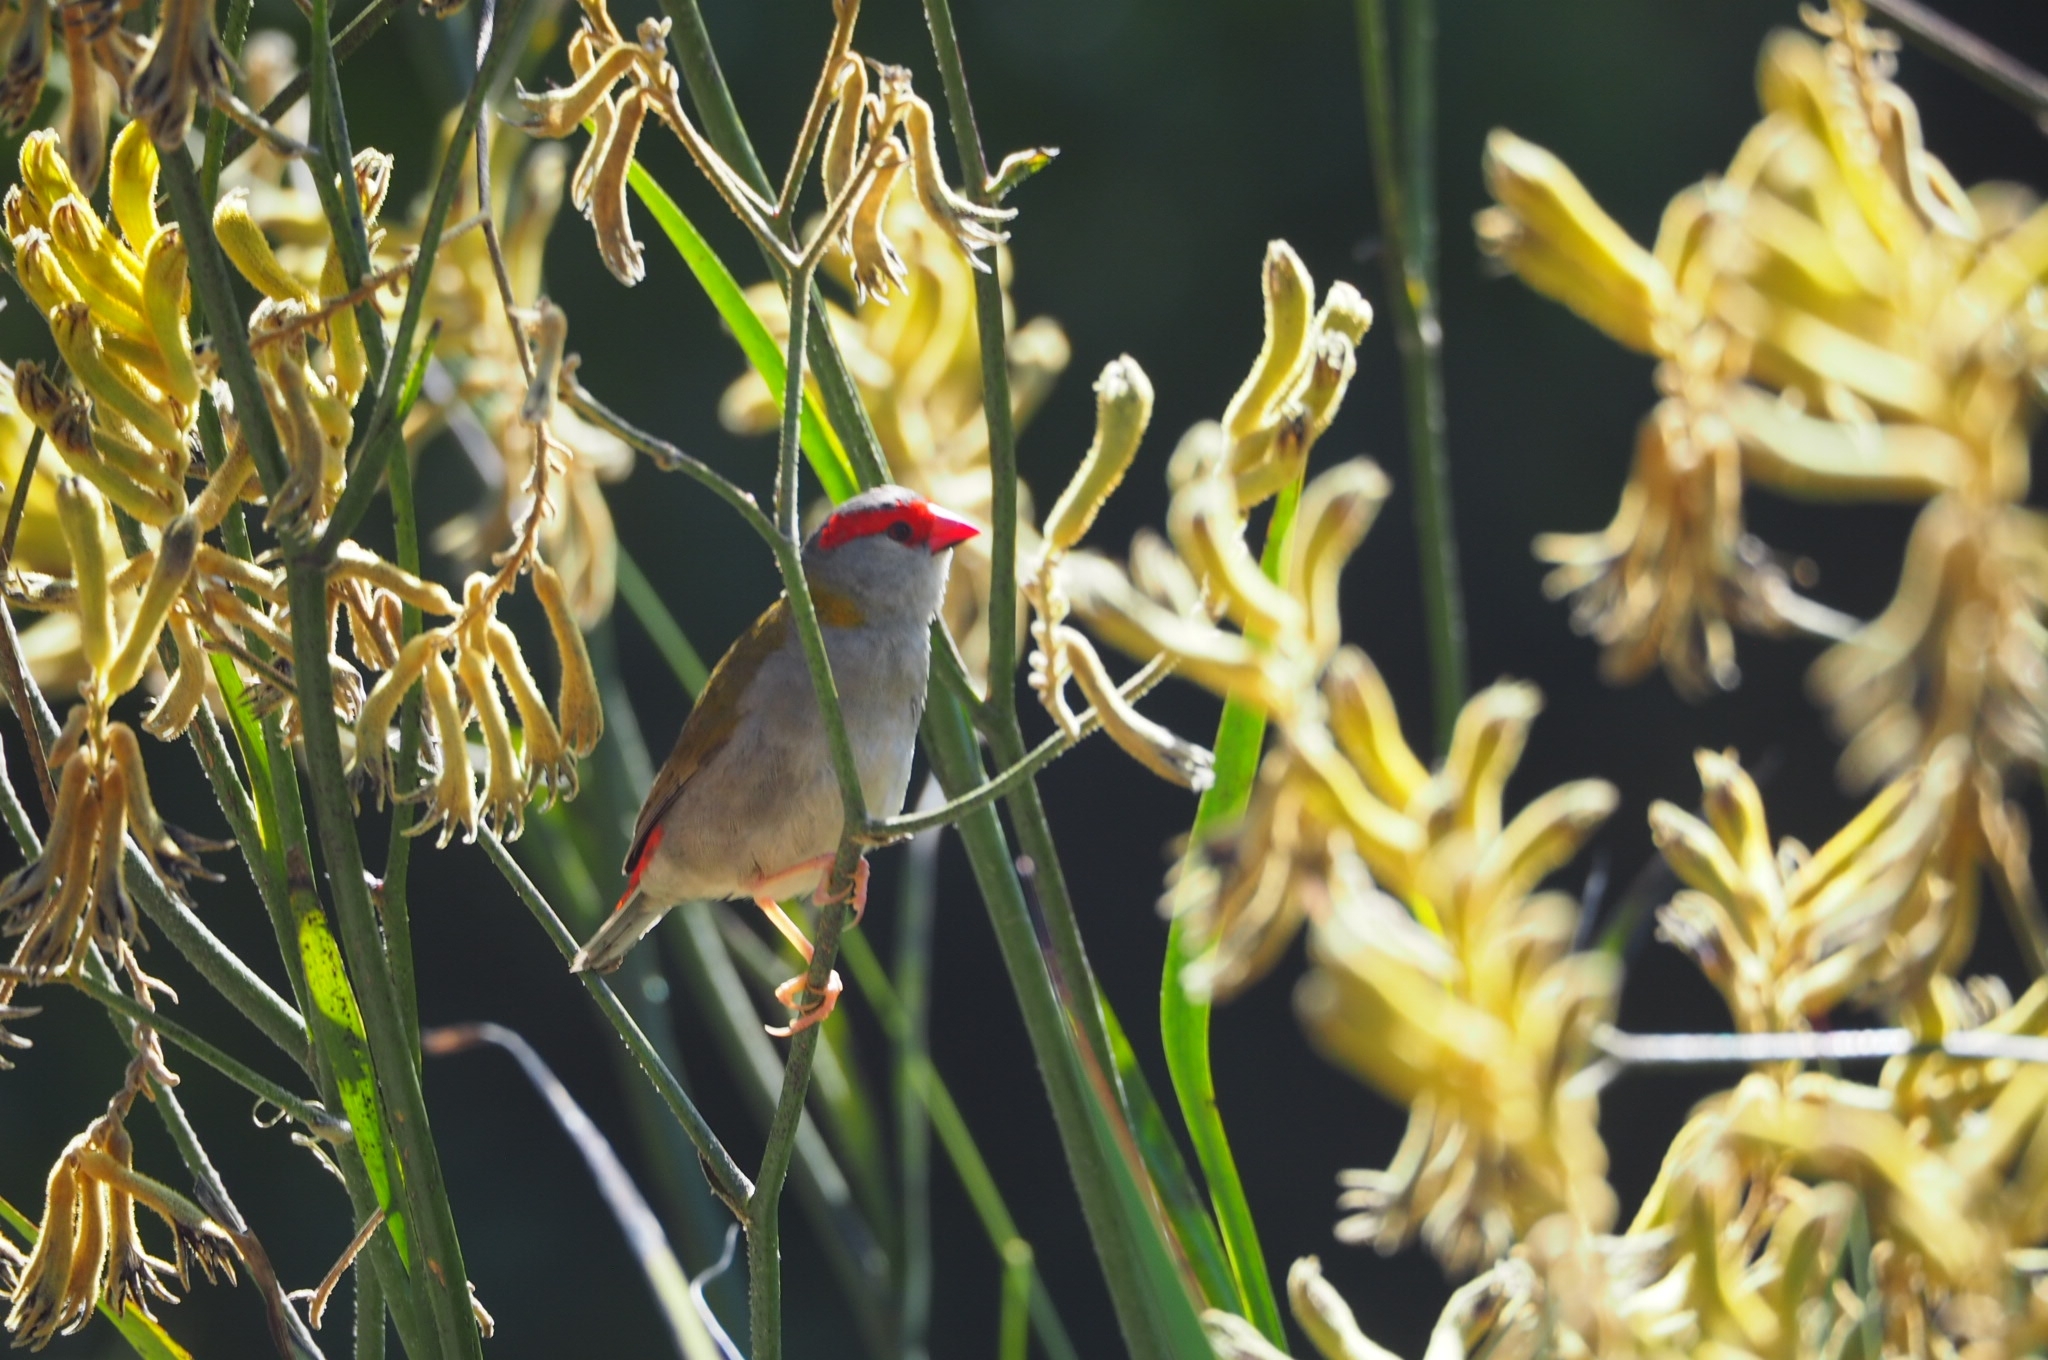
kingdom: Animalia
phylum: Chordata
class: Aves
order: Passeriformes
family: Estrildidae
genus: Neochmia
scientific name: Neochmia temporalis
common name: Red-browed finch
